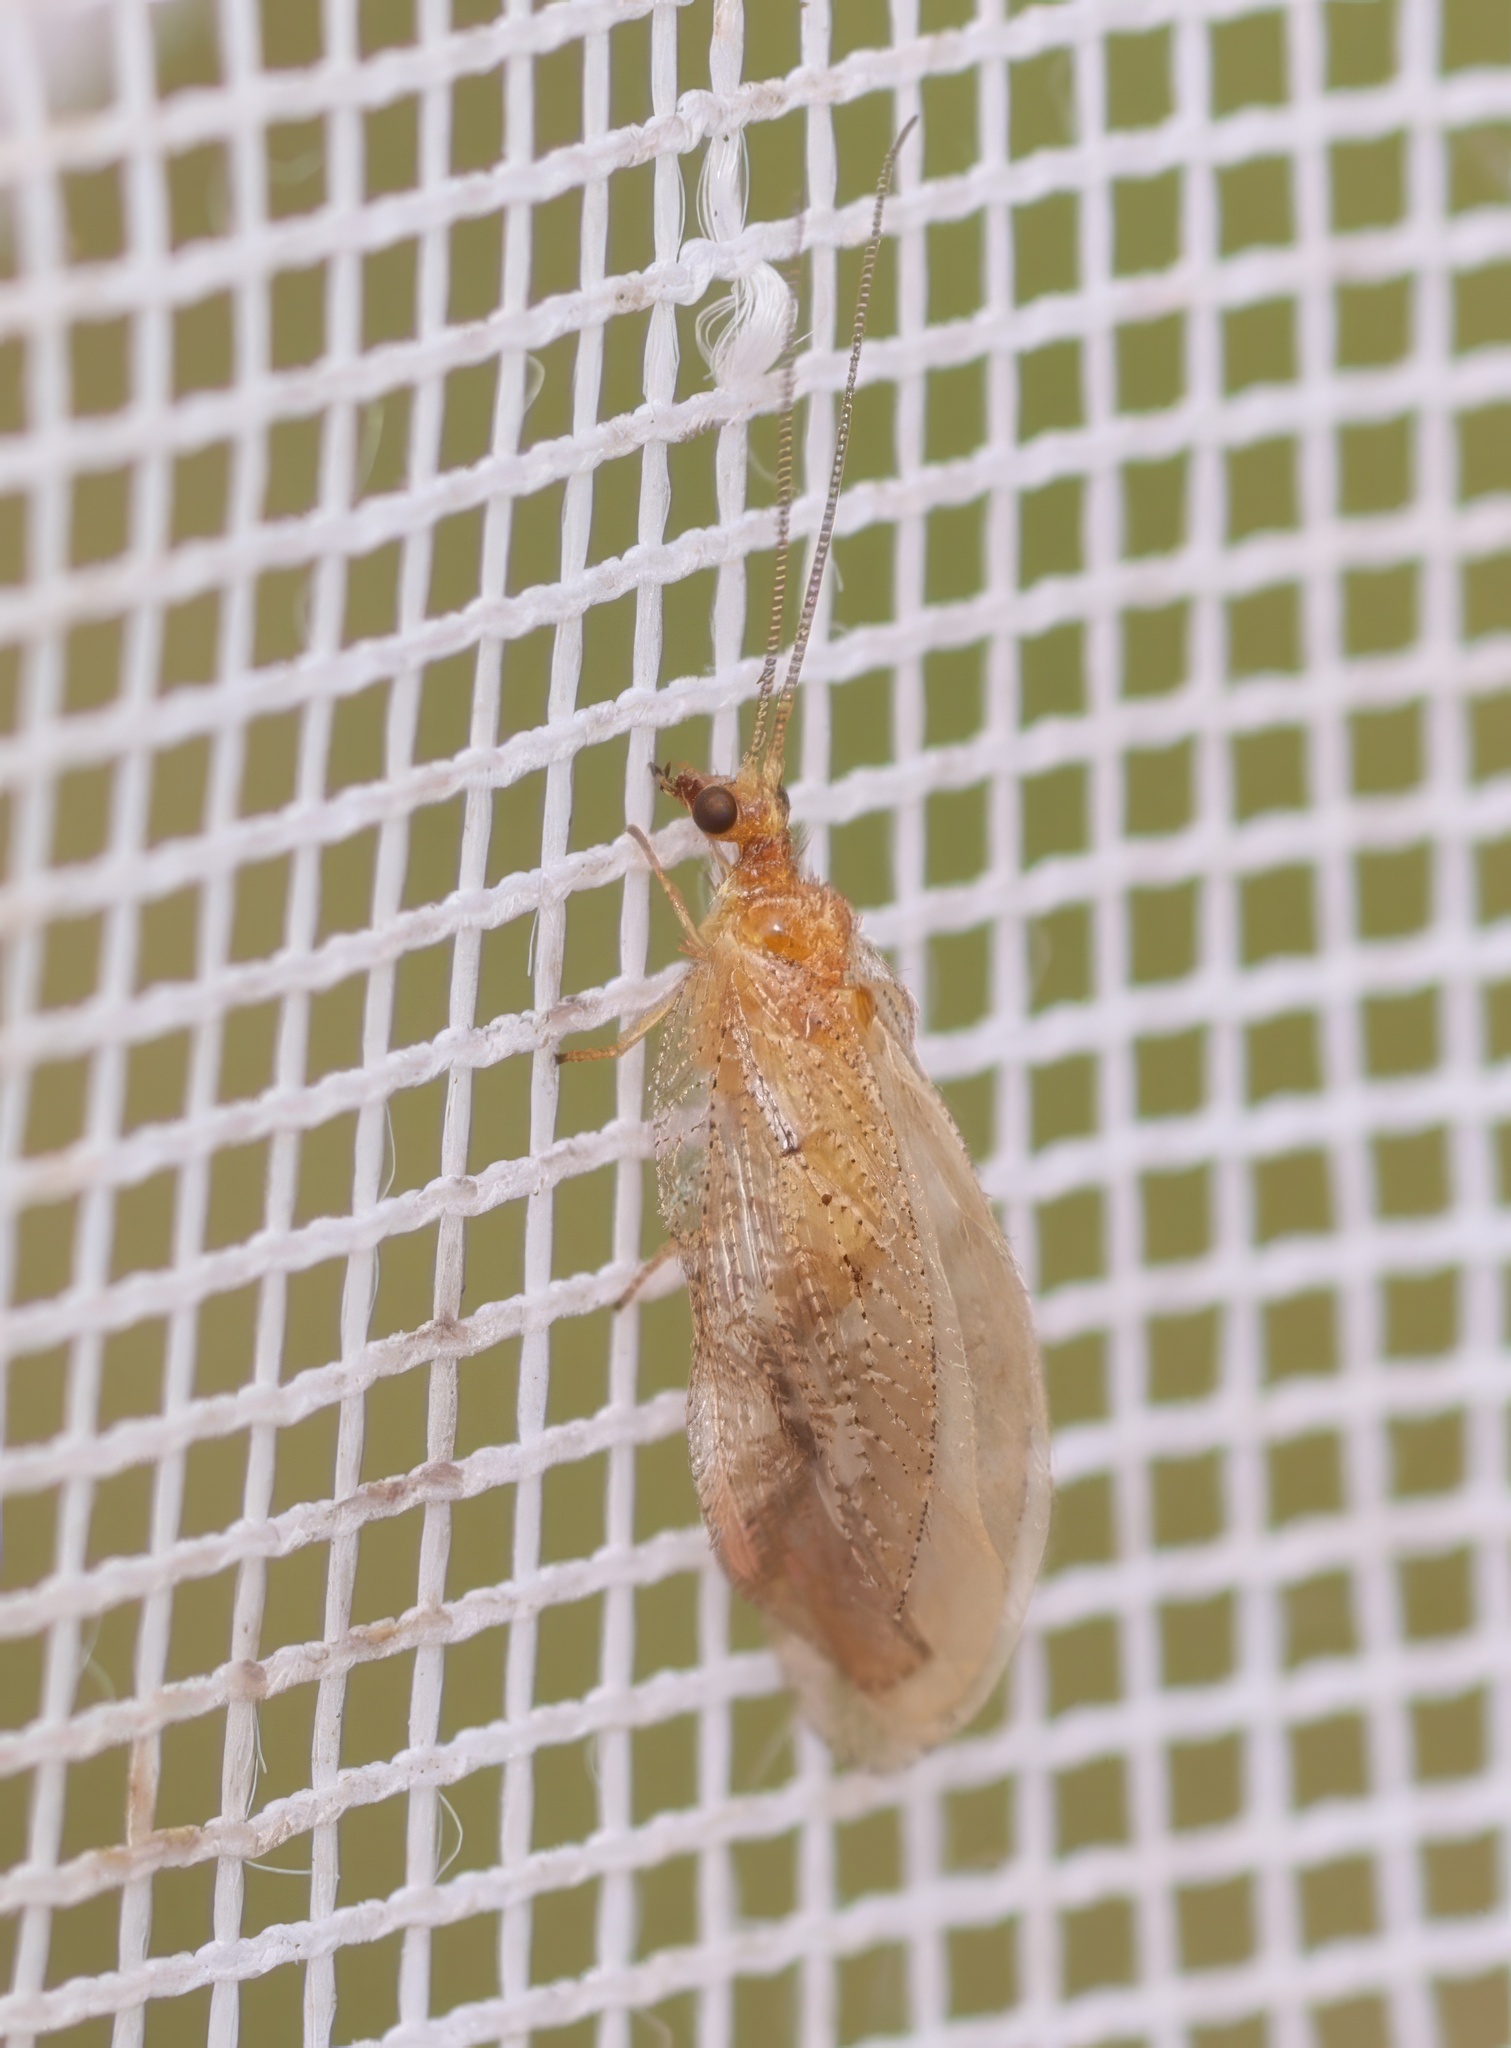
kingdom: Animalia
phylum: Arthropoda
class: Insecta
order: Neuroptera
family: Hemerobiidae
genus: Hemerobius
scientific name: Hemerobius stigma
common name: Brown pine lacewing
